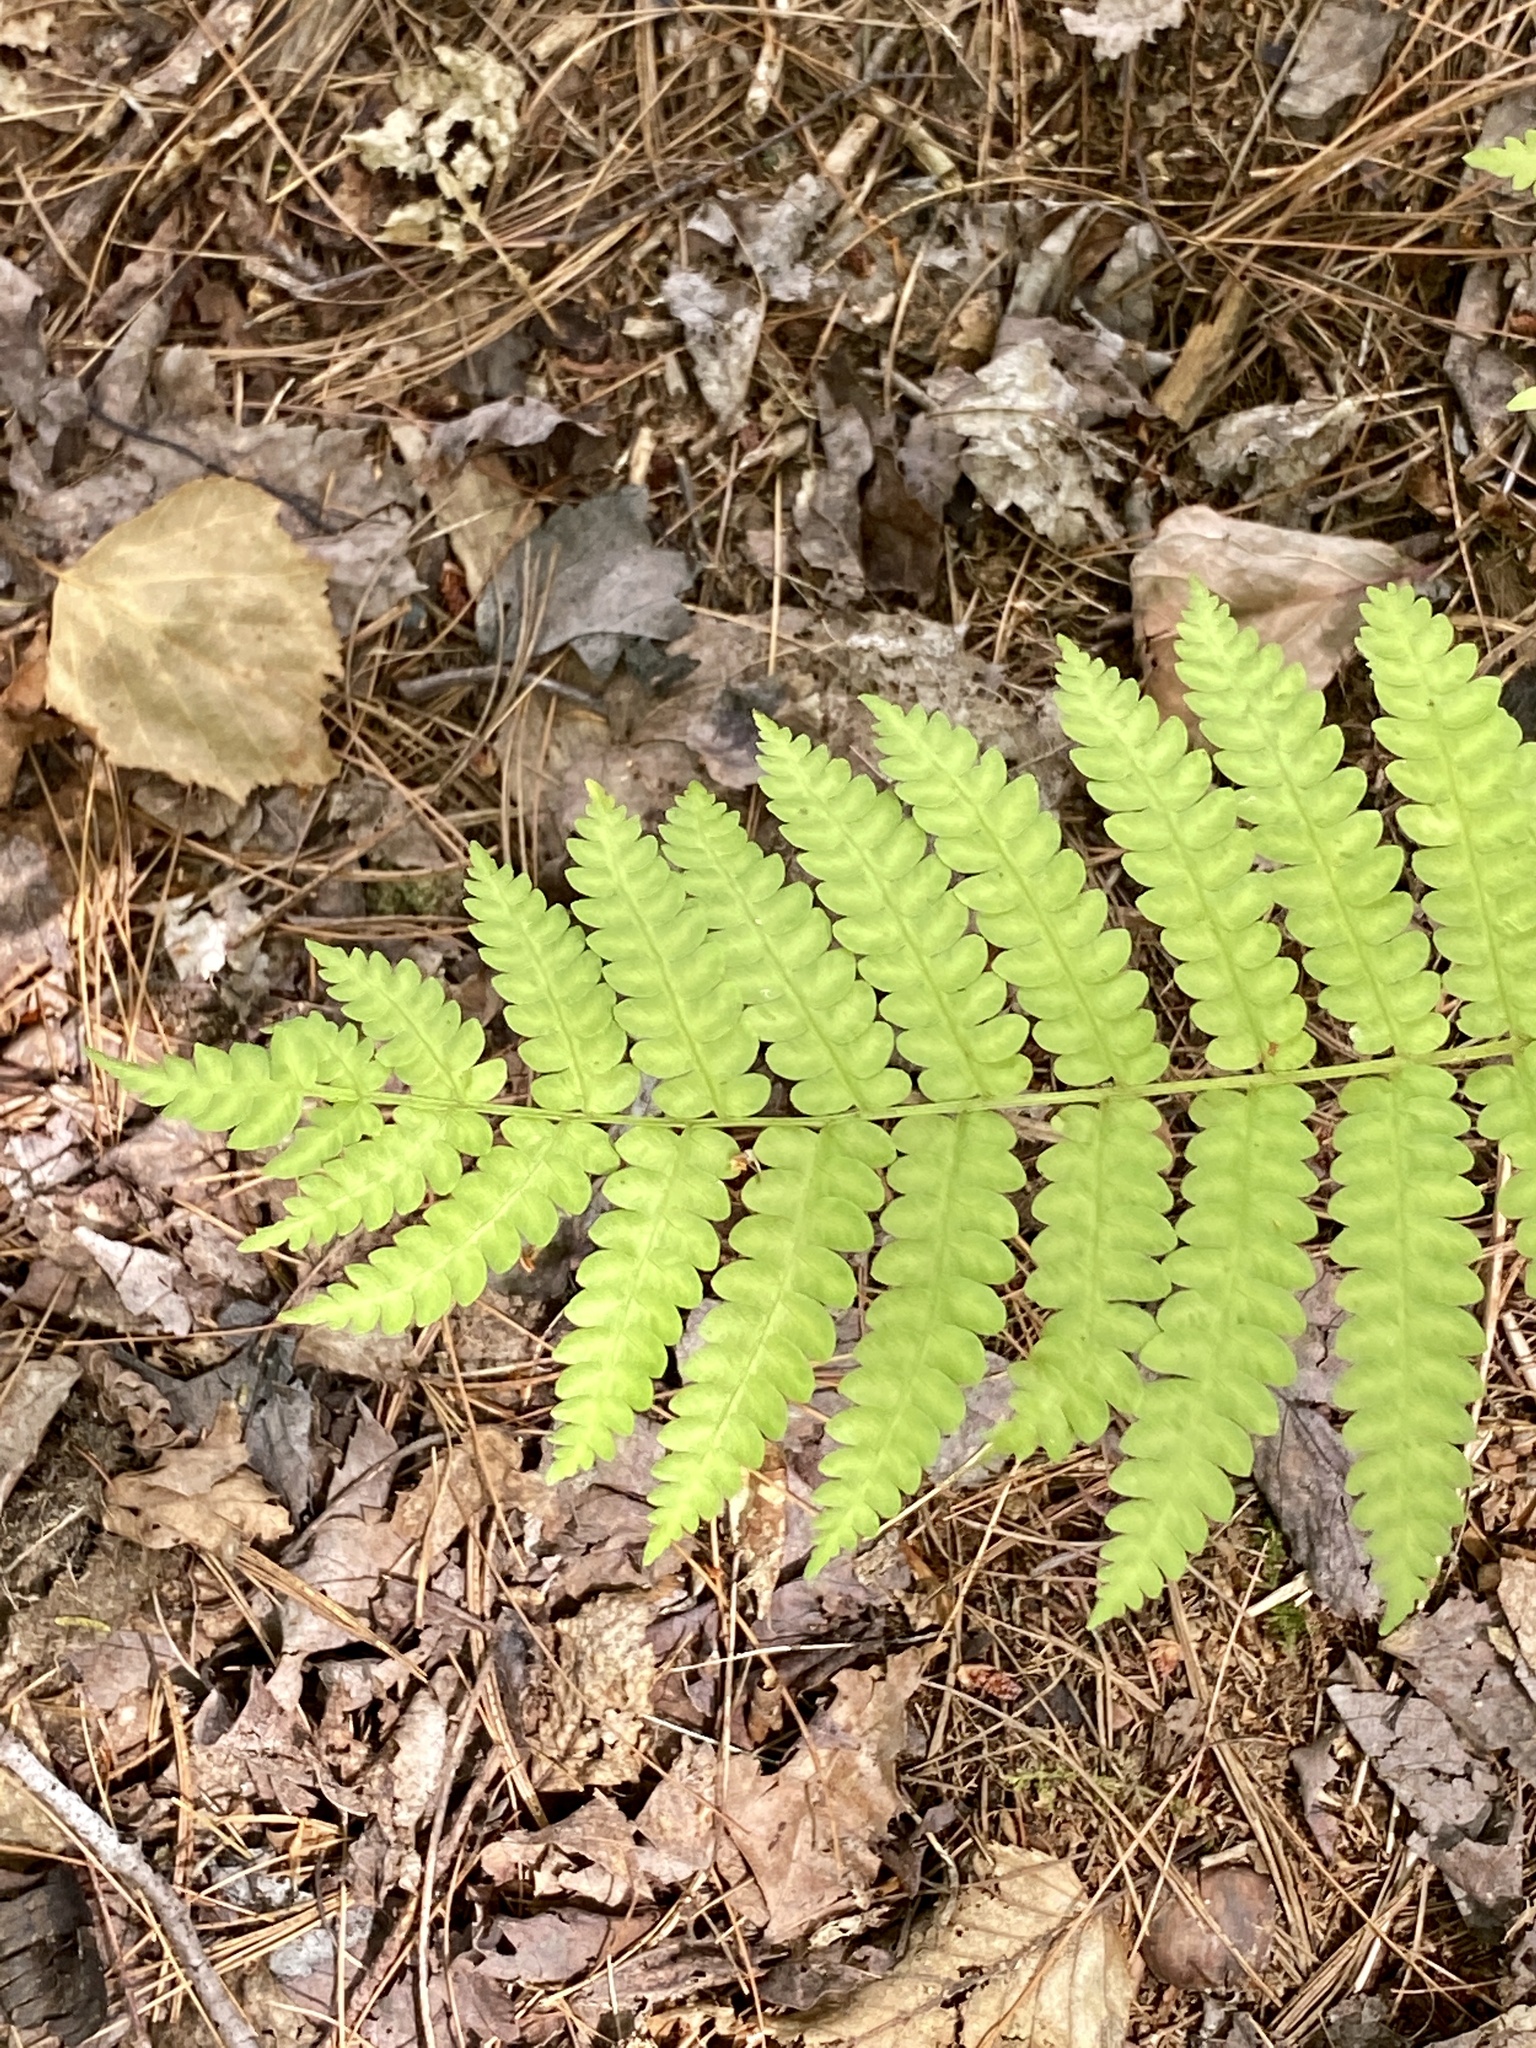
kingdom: Plantae
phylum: Tracheophyta
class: Polypodiopsida
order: Osmundales
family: Osmundaceae
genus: Osmundastrum
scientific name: Osmundastrum cinnamomeum
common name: Cinnamon fern
